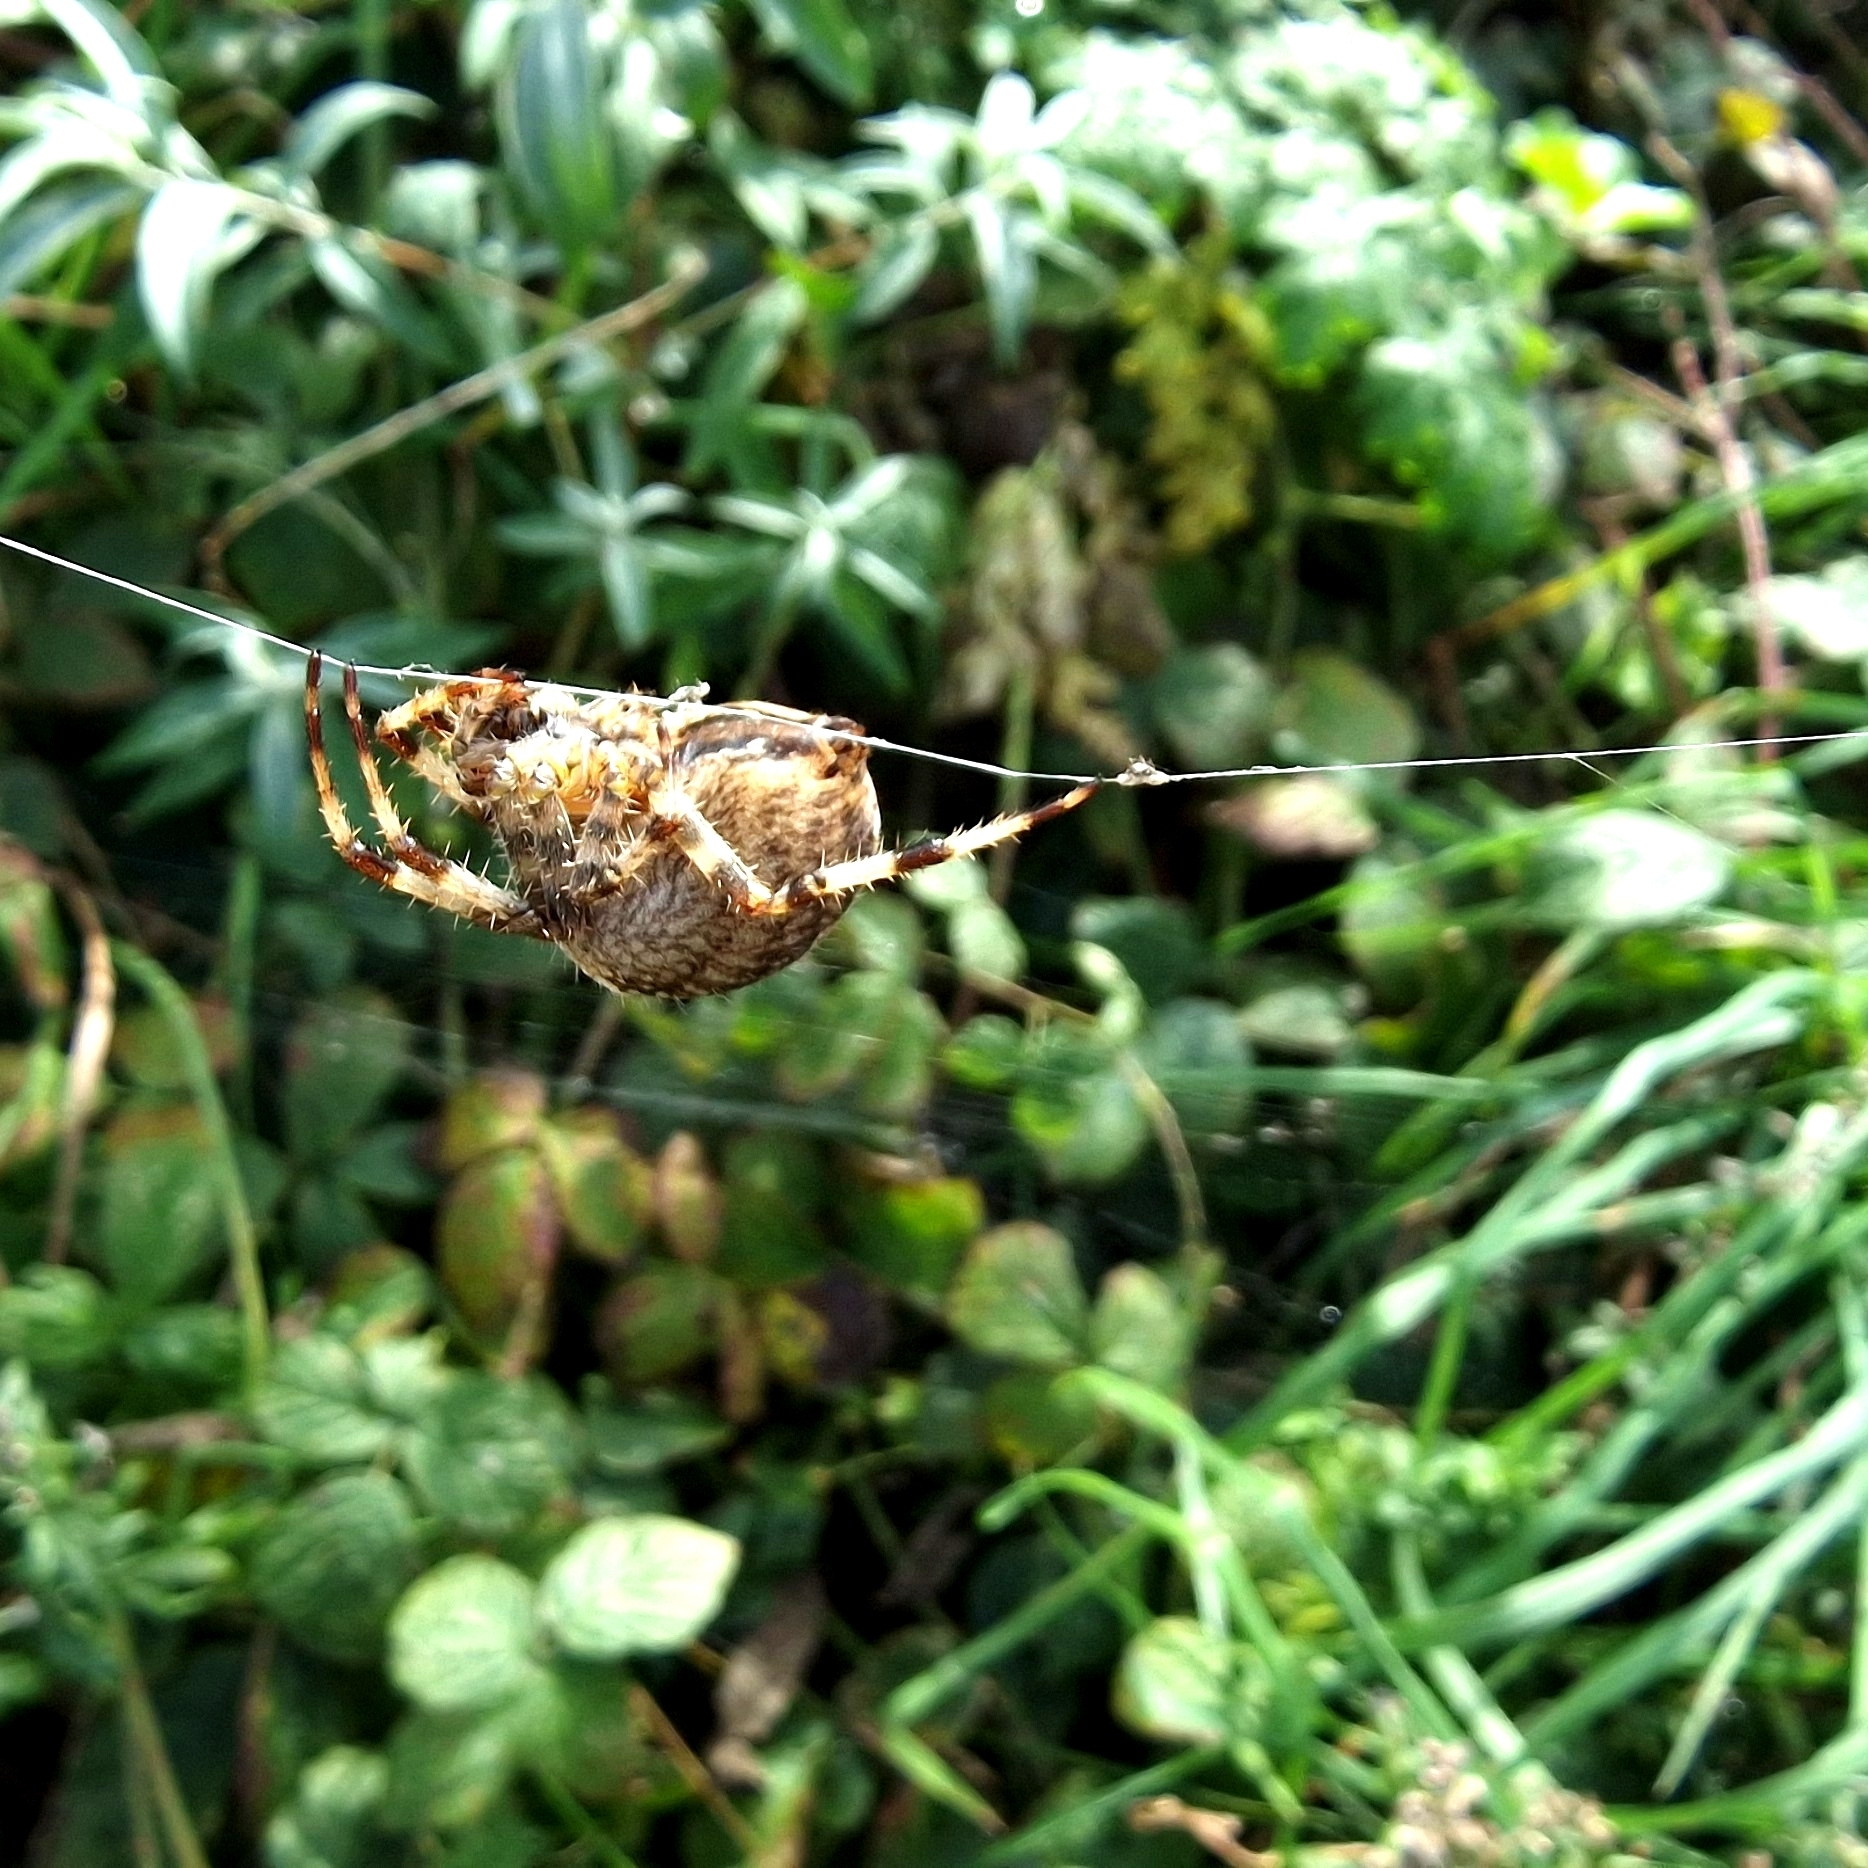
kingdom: Animalia
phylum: Arthropoda
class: Arachnida
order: Araneae
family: Araneidae
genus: Araneus
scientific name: Araneus diadematus
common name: Cross orbweaver
